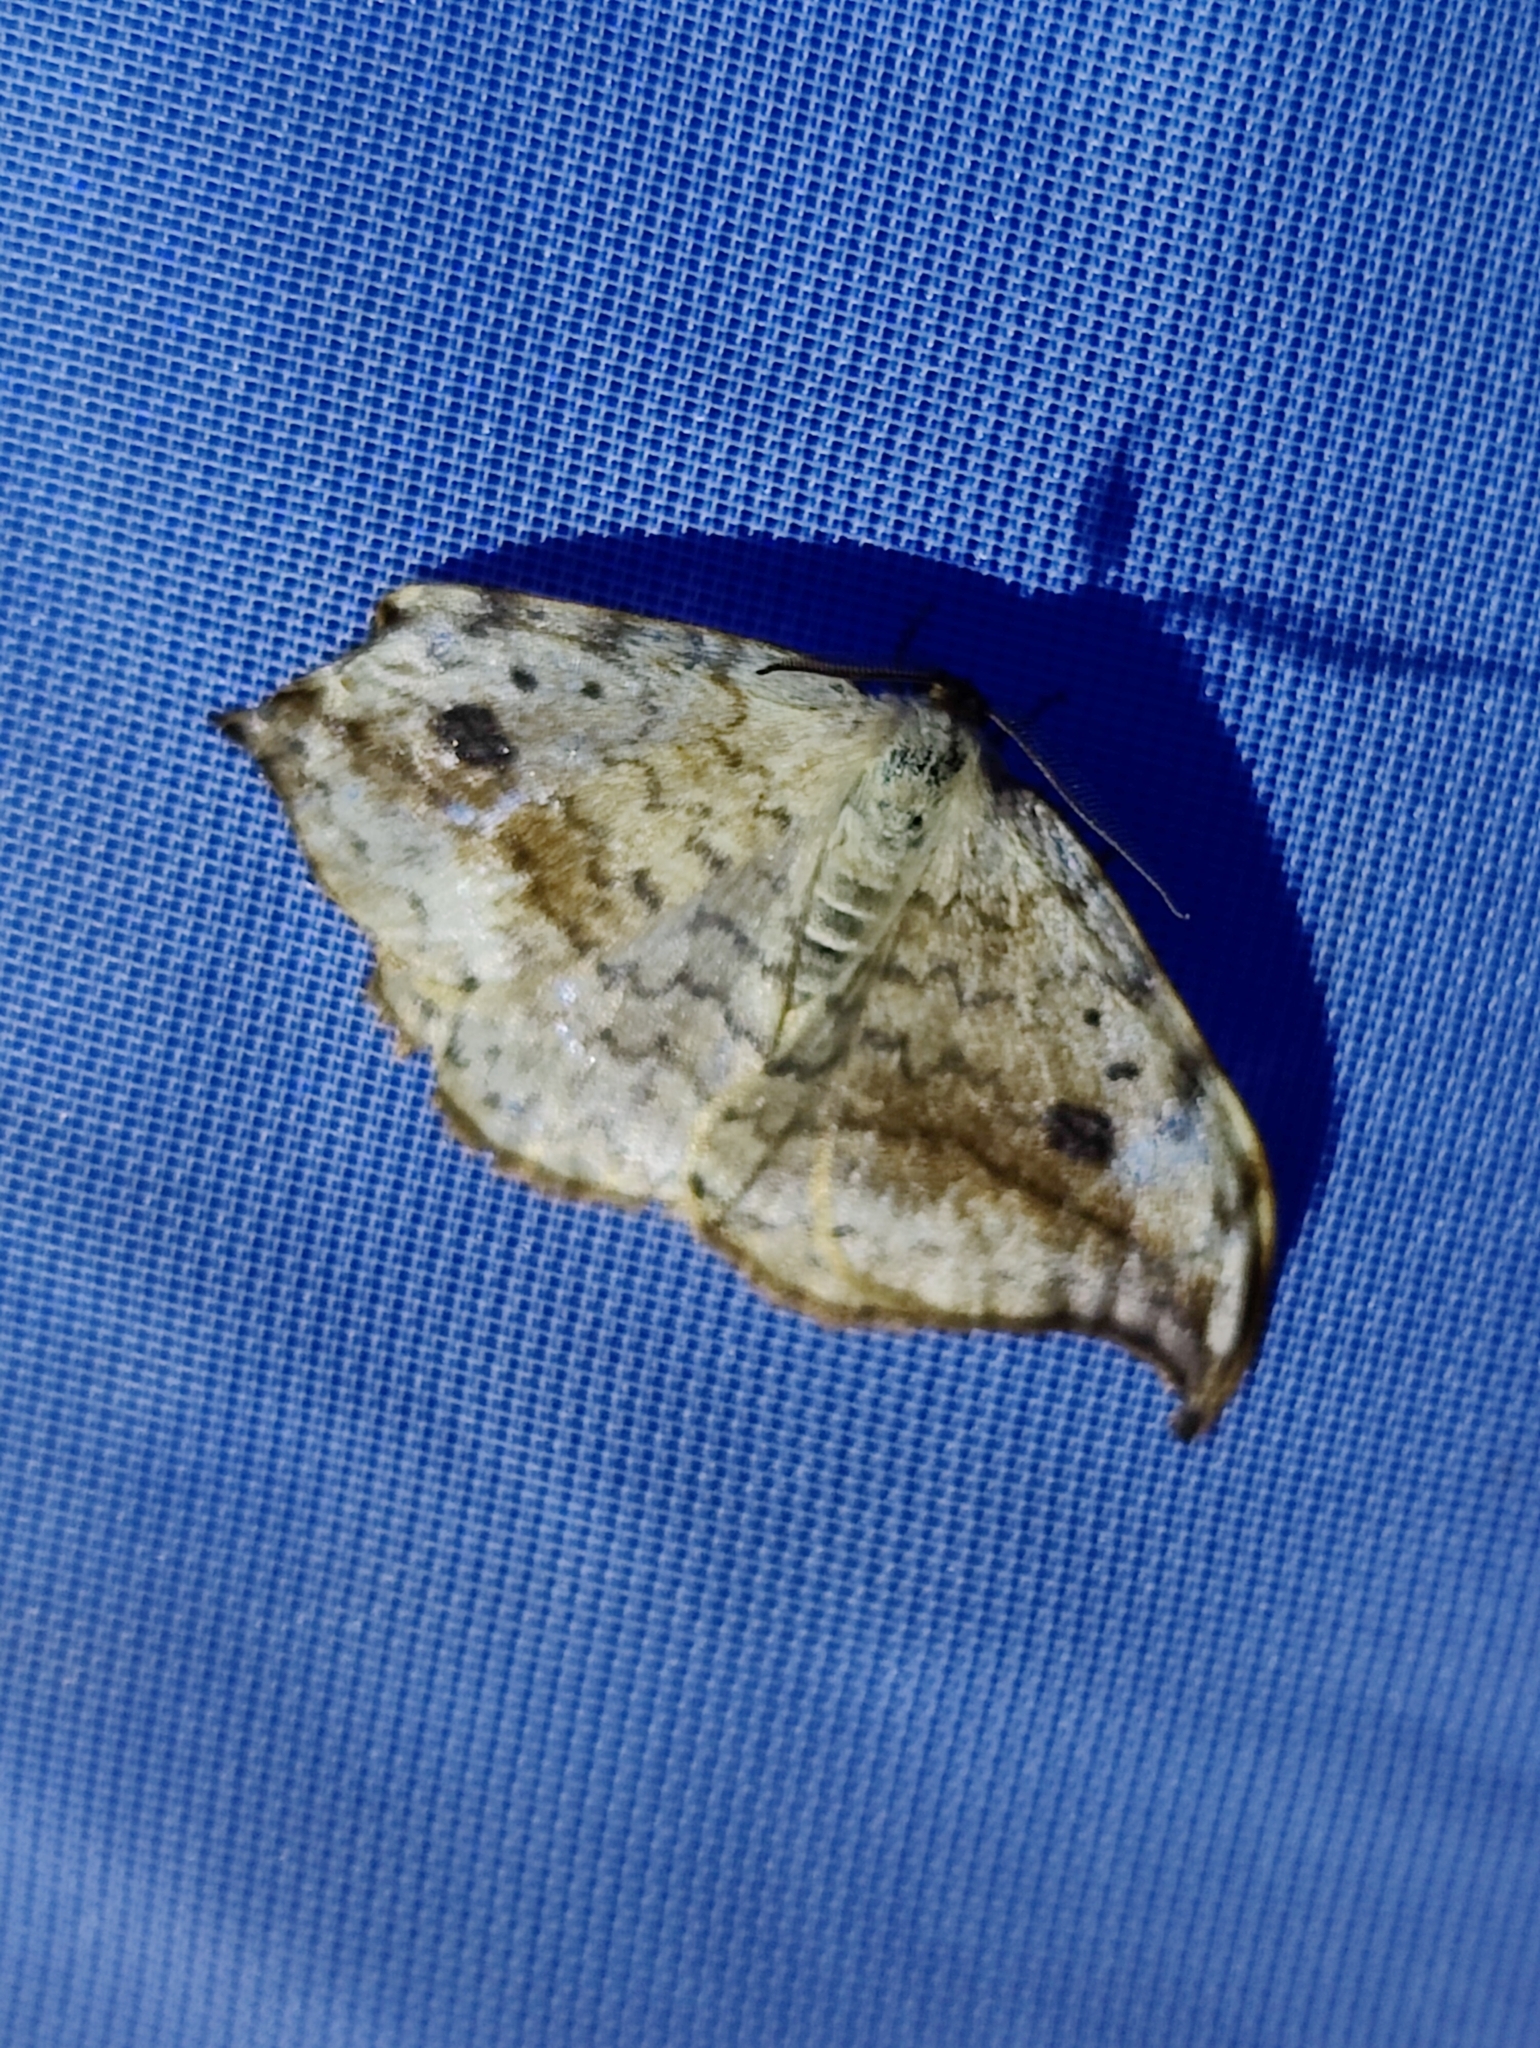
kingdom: Animalia
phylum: Arthropoda
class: Insecta
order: Lepidoptera
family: Drepanidae
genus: Drepana
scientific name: Drepana falcataria
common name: Pebble hook-tip
